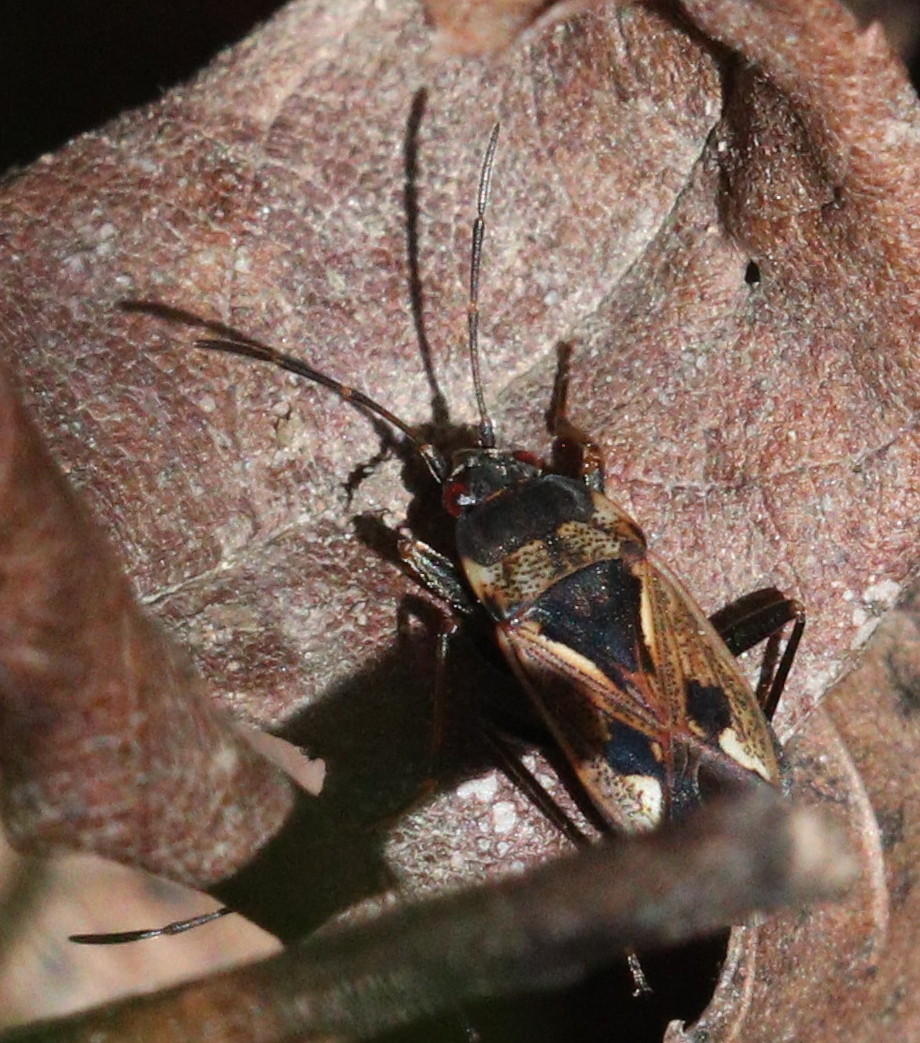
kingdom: Animalia
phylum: Arthropoda
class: Insecta
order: Hemiptera
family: Rhyparochromidae
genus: Rhyparochromus
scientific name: Rhyparochromus vulgaris
